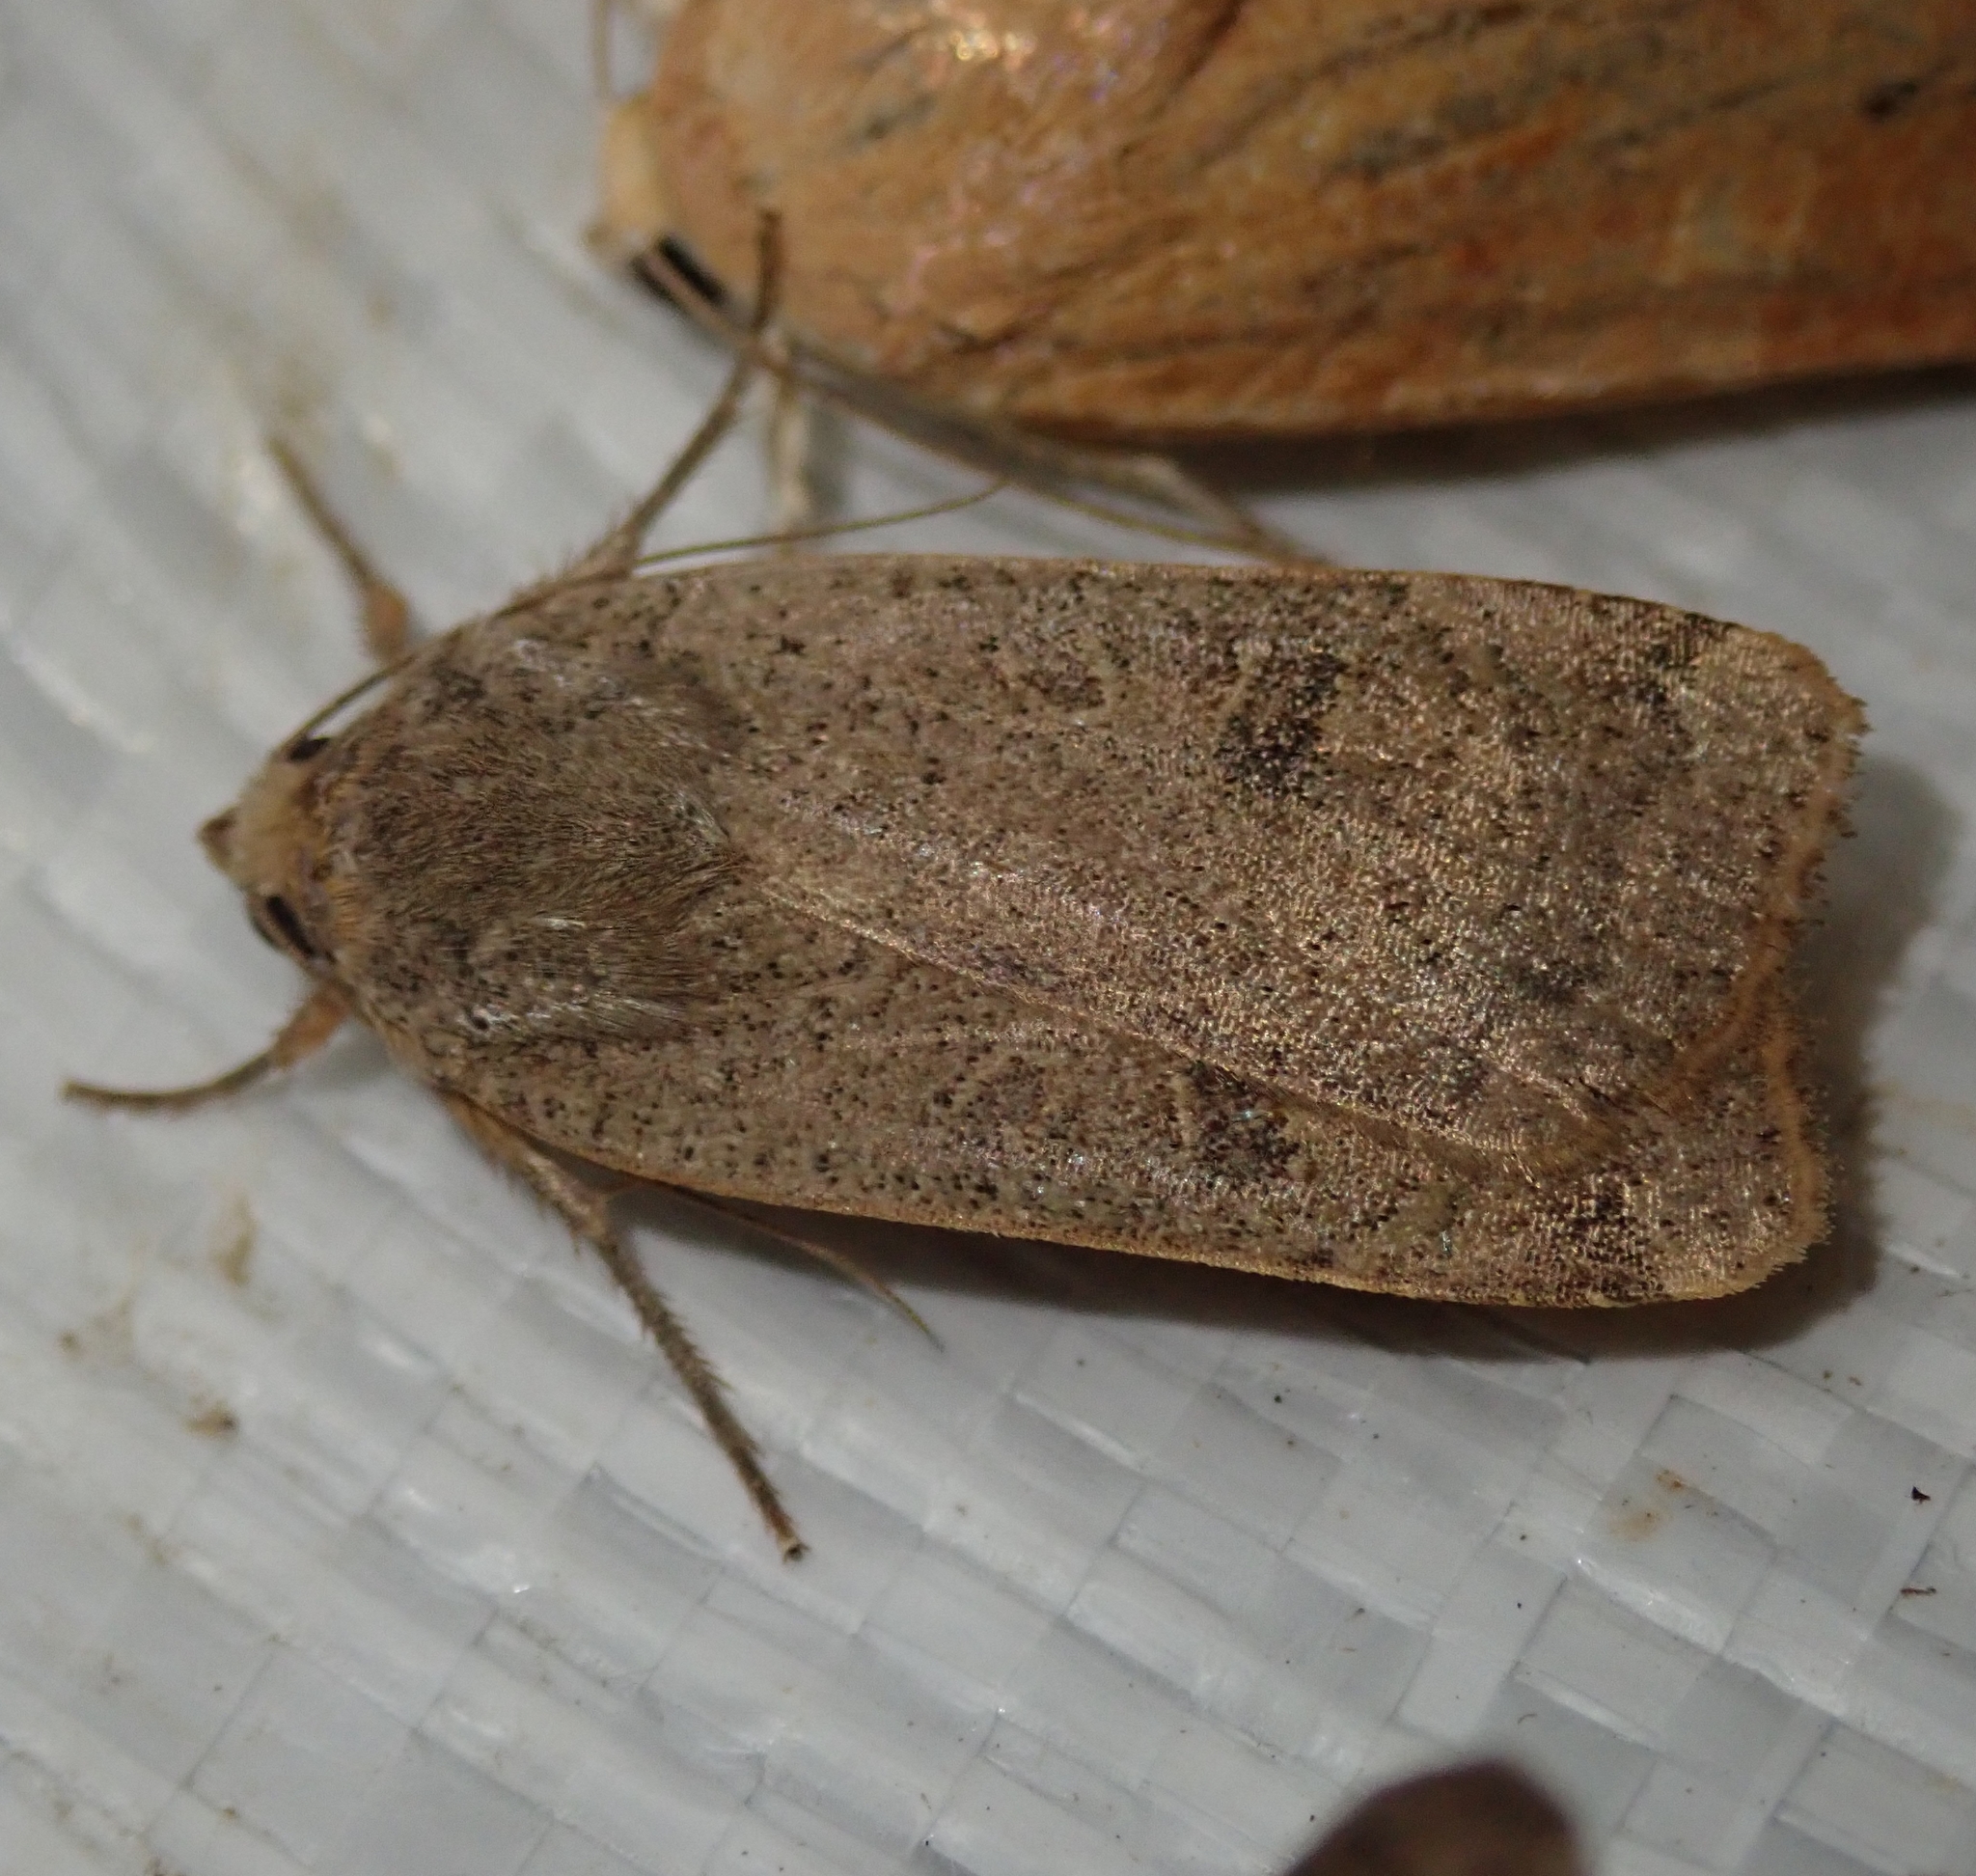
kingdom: Animalia
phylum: Arthropoda
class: Insecta
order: Lepidoptera
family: Noctuidae
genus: Noctua
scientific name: Noctua comes
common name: Lesser yellow underwing
